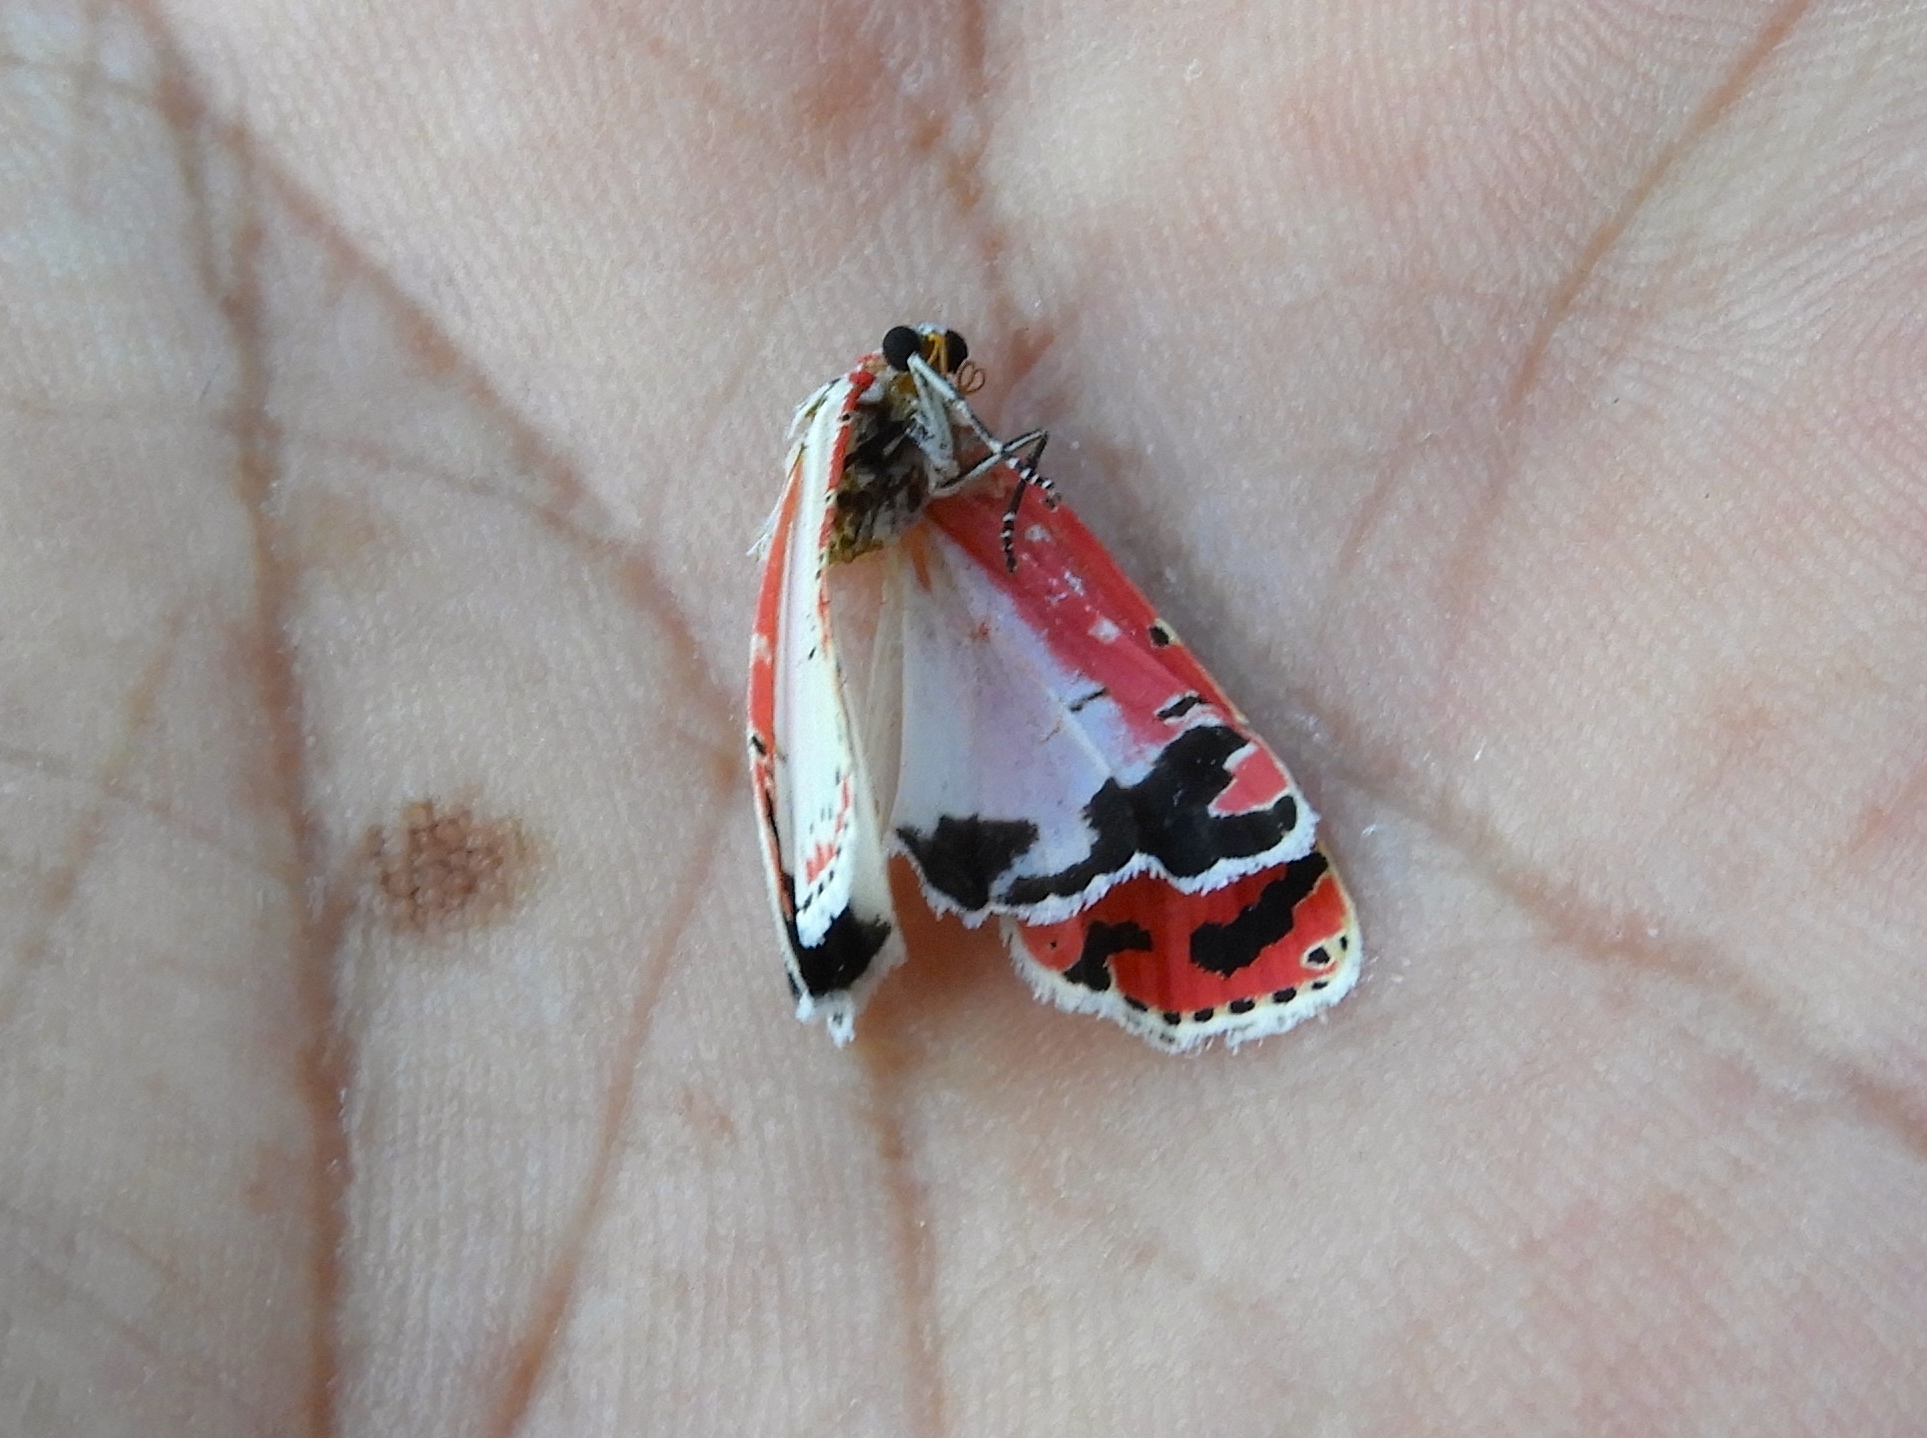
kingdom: Animalia
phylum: Arthropoda
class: Insecta
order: Lepidoptera
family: Erebidae
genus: Utetheisa
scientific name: Utetheisa ornatrix
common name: Beautiful utetheisa
